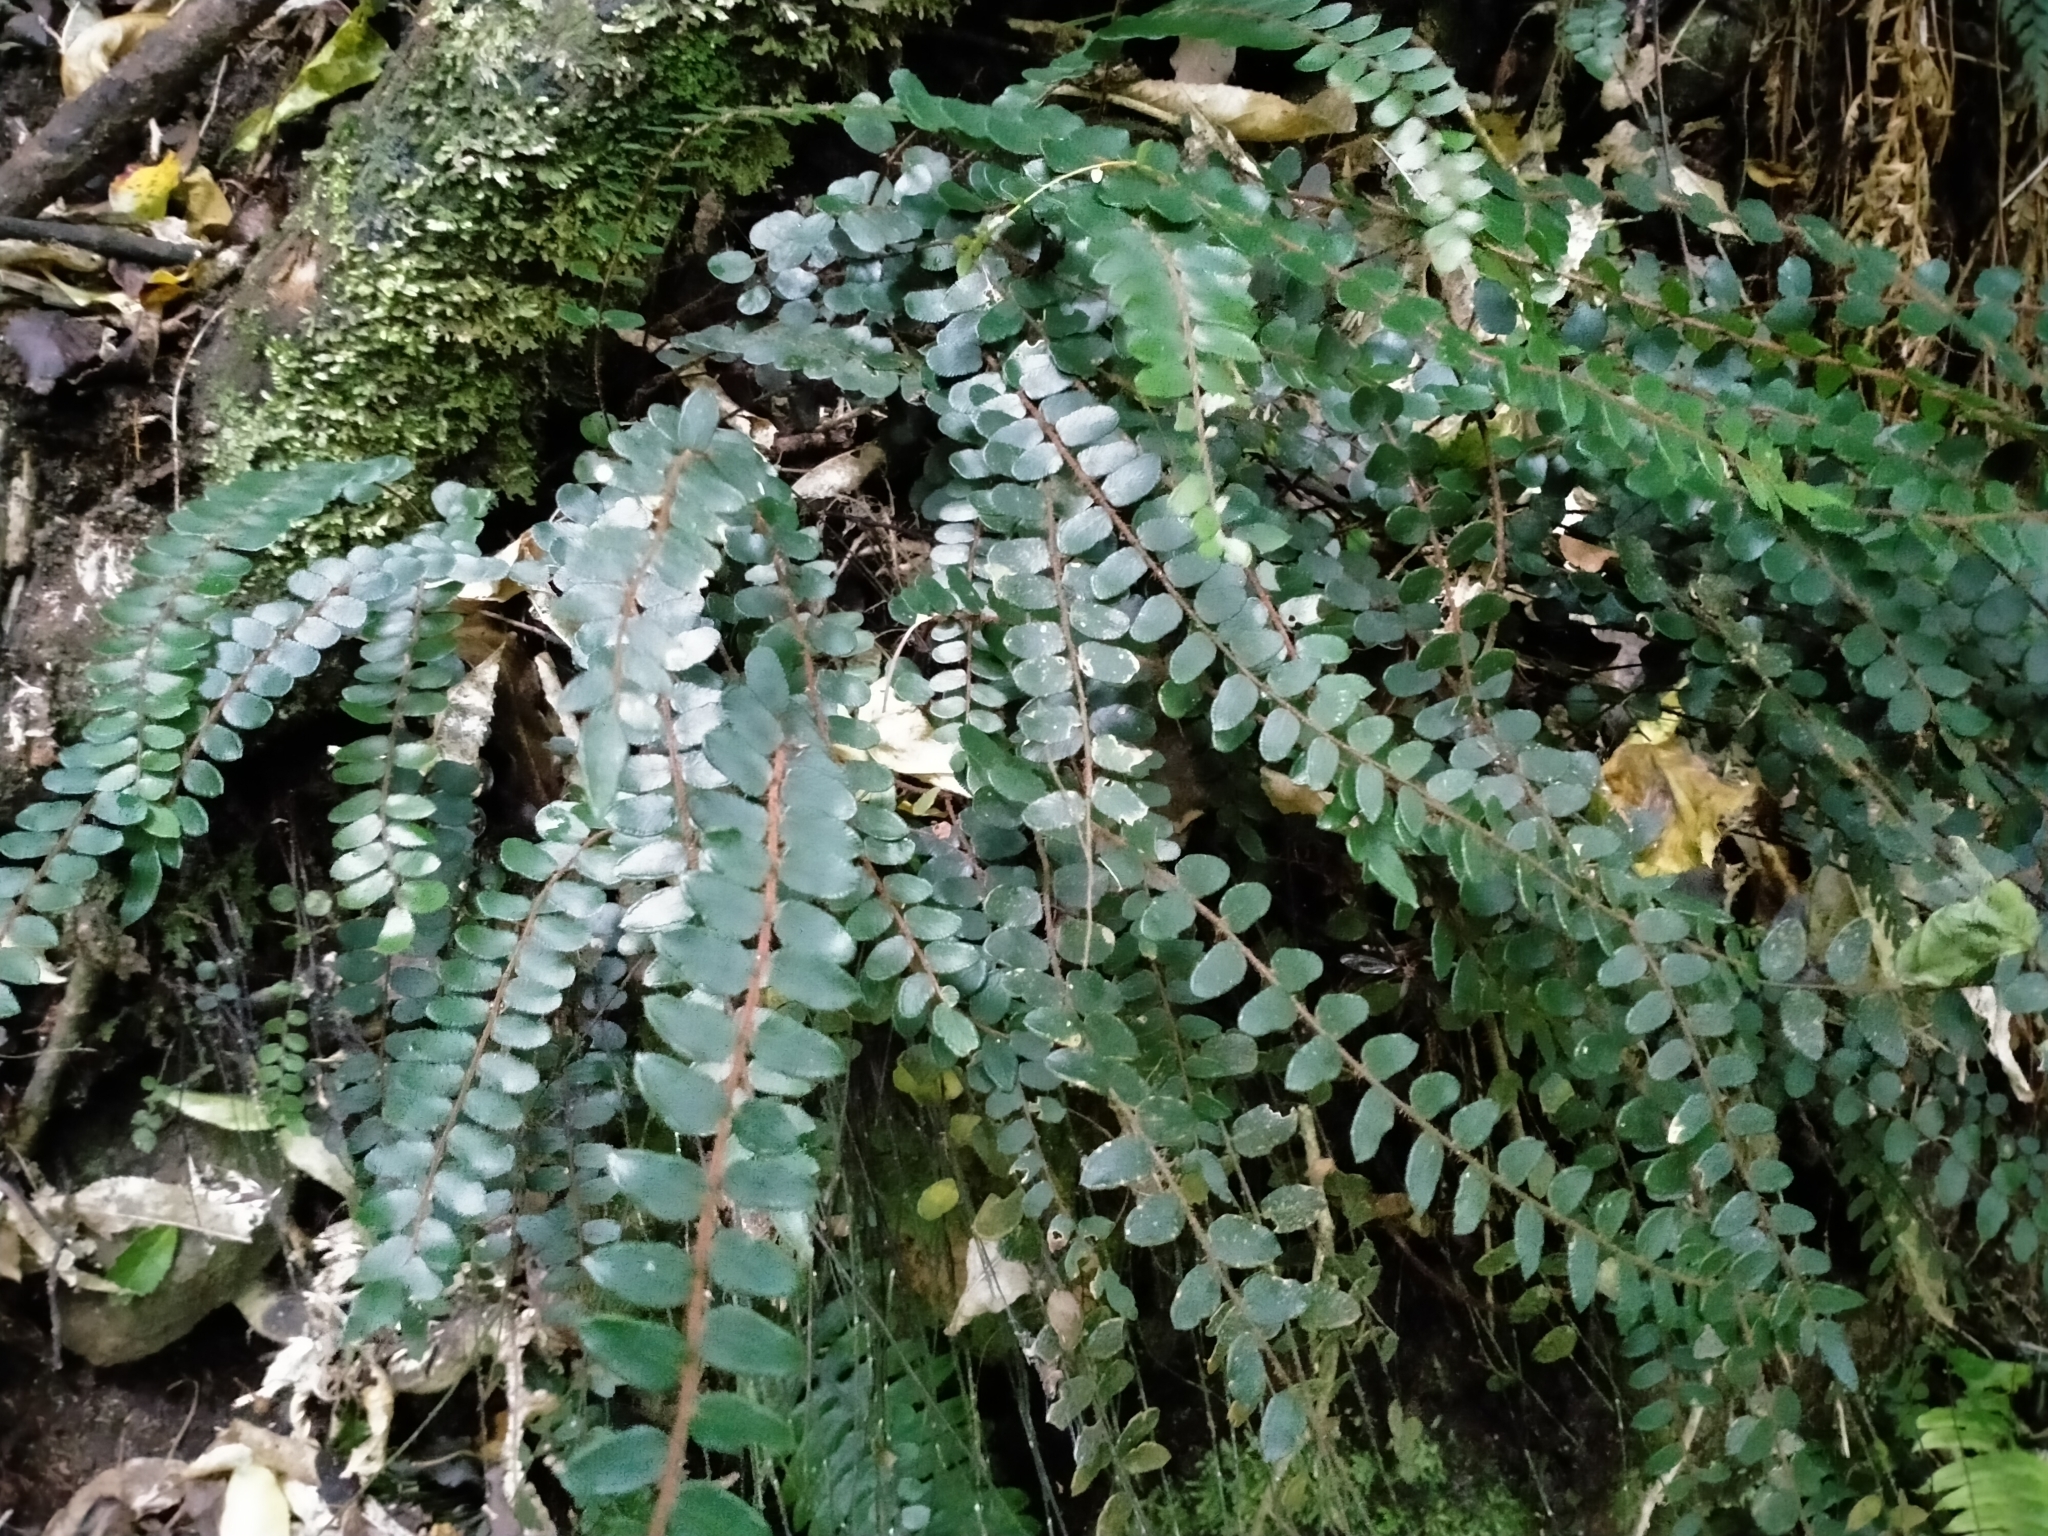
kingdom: Plantae
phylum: Tracheophyta
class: Polypodiopsida
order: Polypodiales
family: Pteridaceae
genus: Pellaea
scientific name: Pellaea rotundifolia
